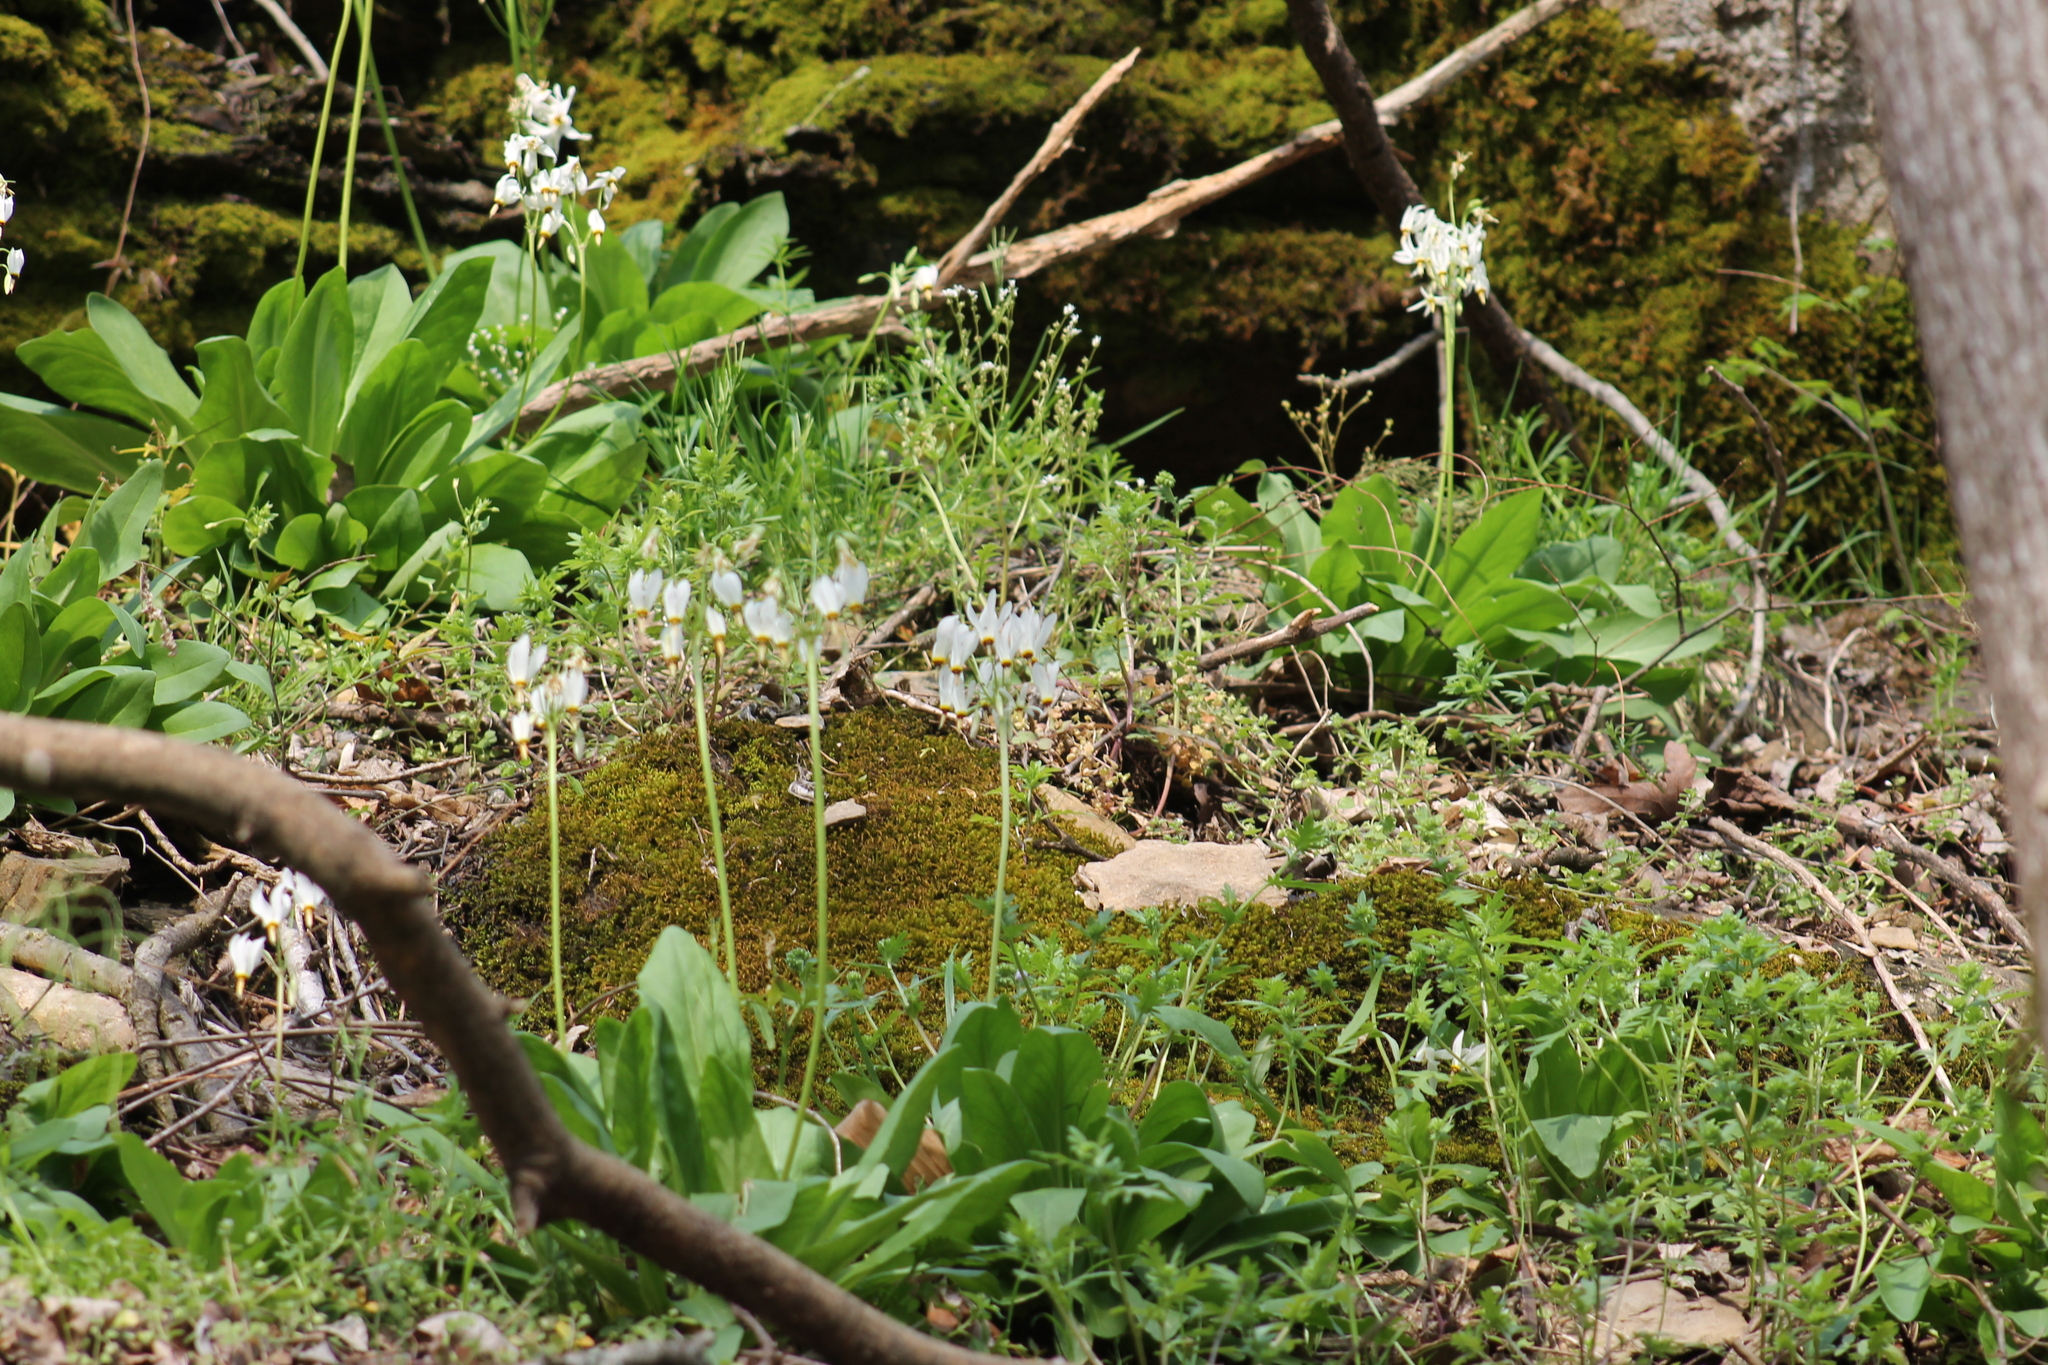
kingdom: Plantae
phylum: Tracheophyta
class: Magnoliopsida
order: Ericales
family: Primulaceae
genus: Dodecatheon
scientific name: Dodecatheon meadia
